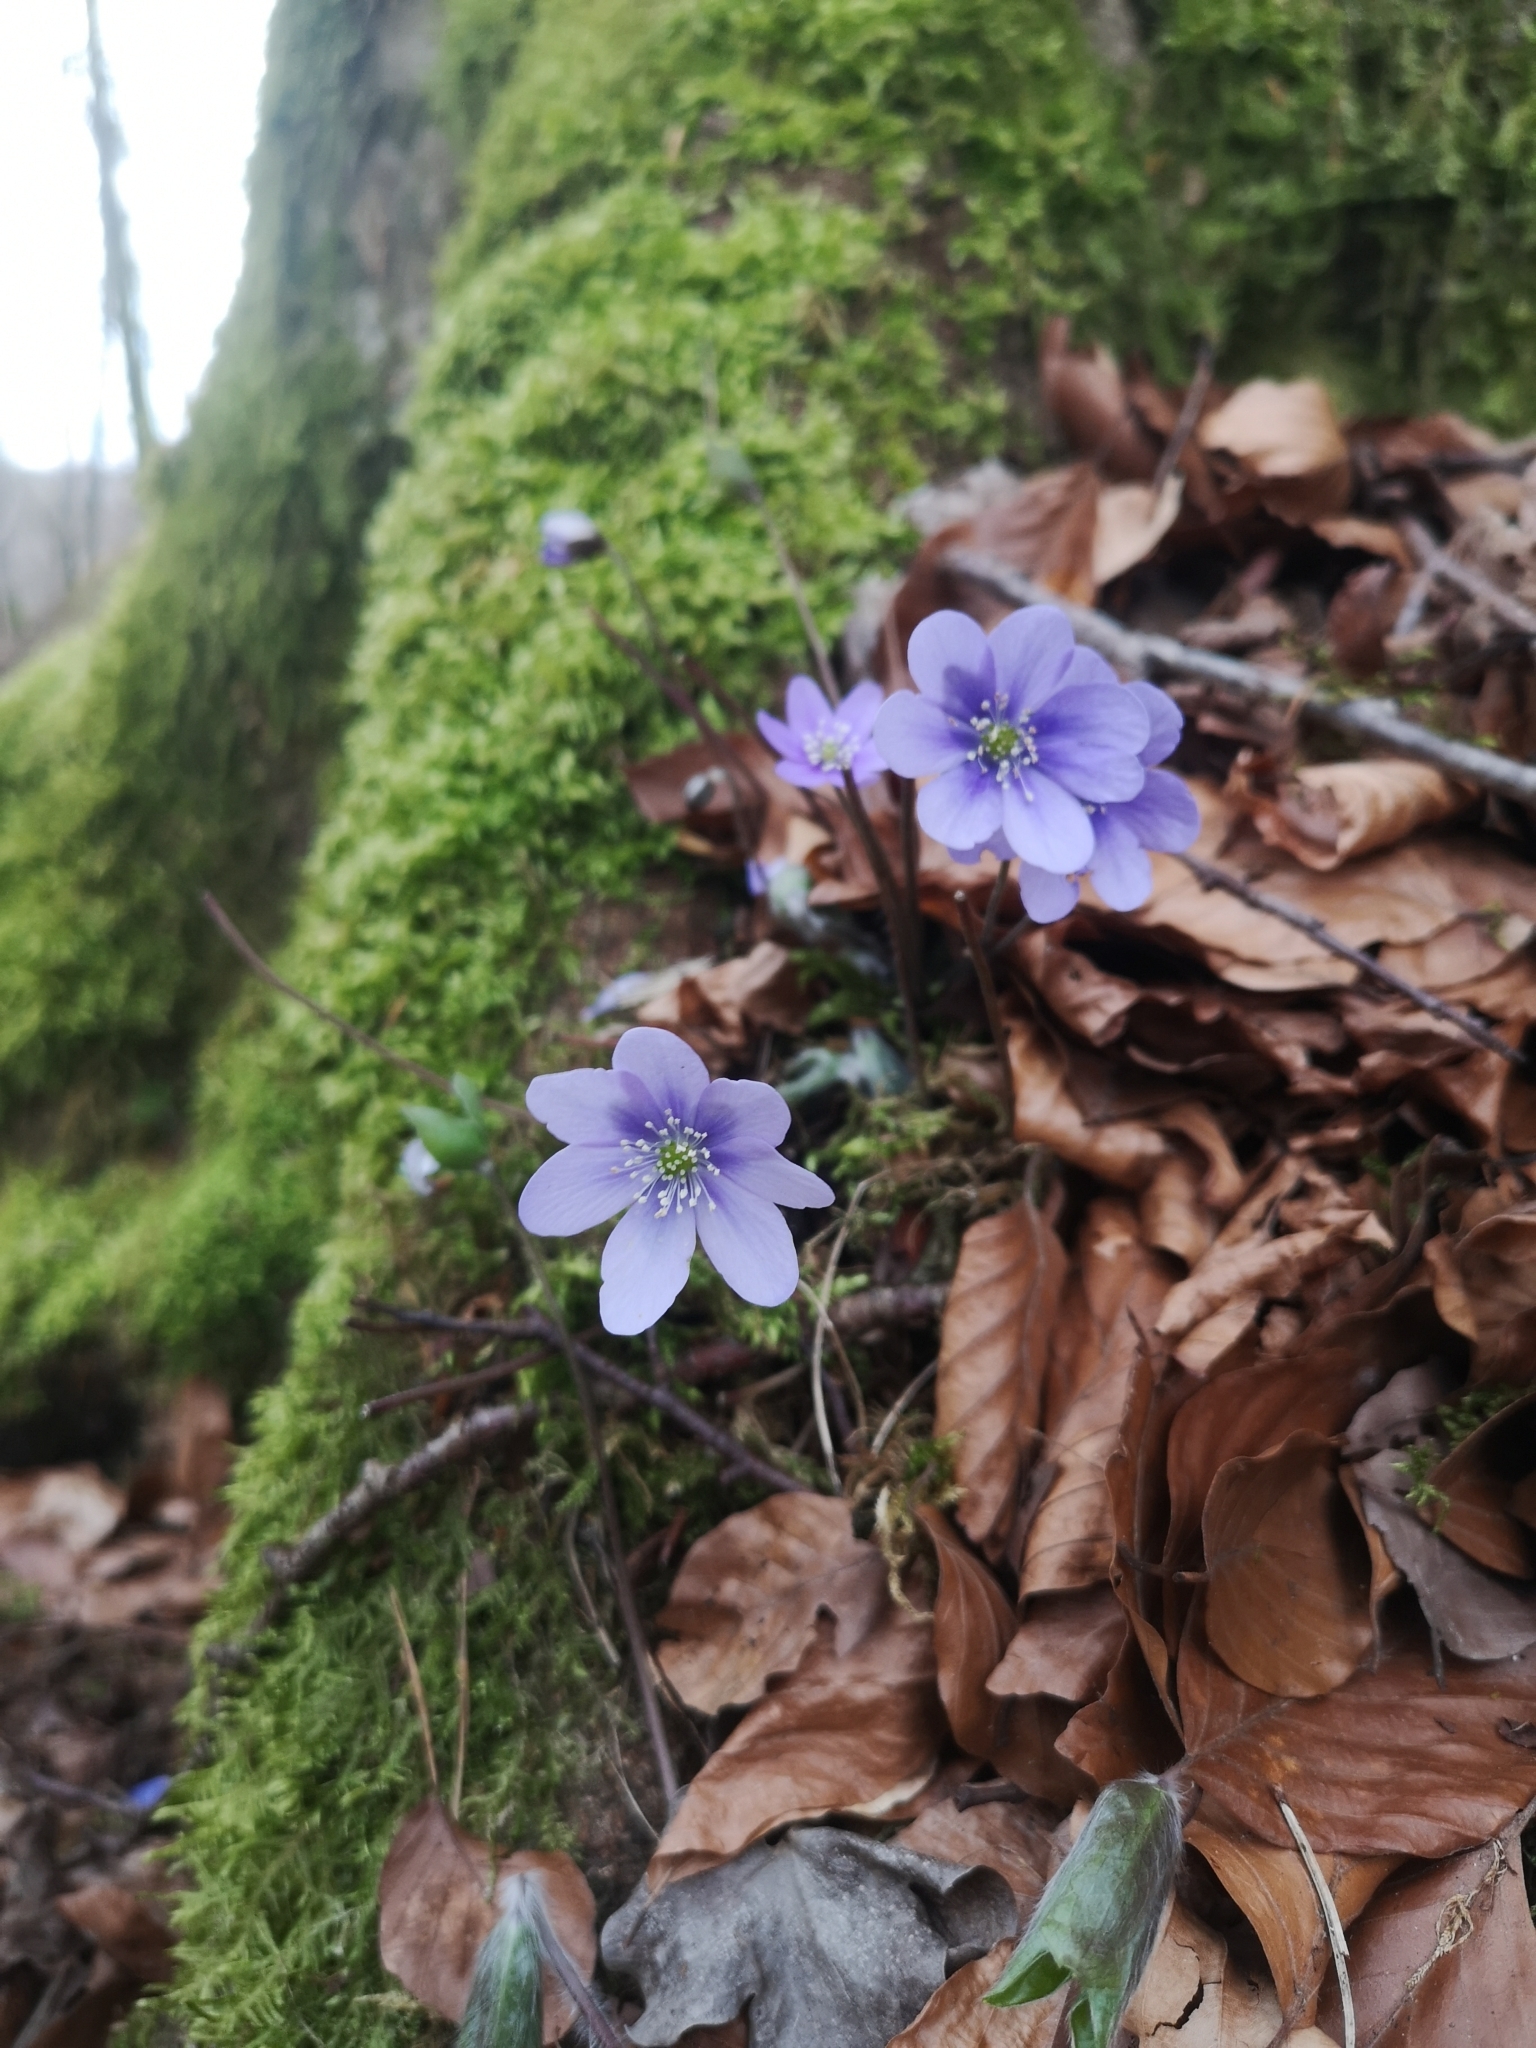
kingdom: Plantae
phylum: Tracheophyta
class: Magnoliopsida
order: Ranunculales
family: Ranunculaceae
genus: Hepatica
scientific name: Hepatica nobilis
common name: Liverleaf
